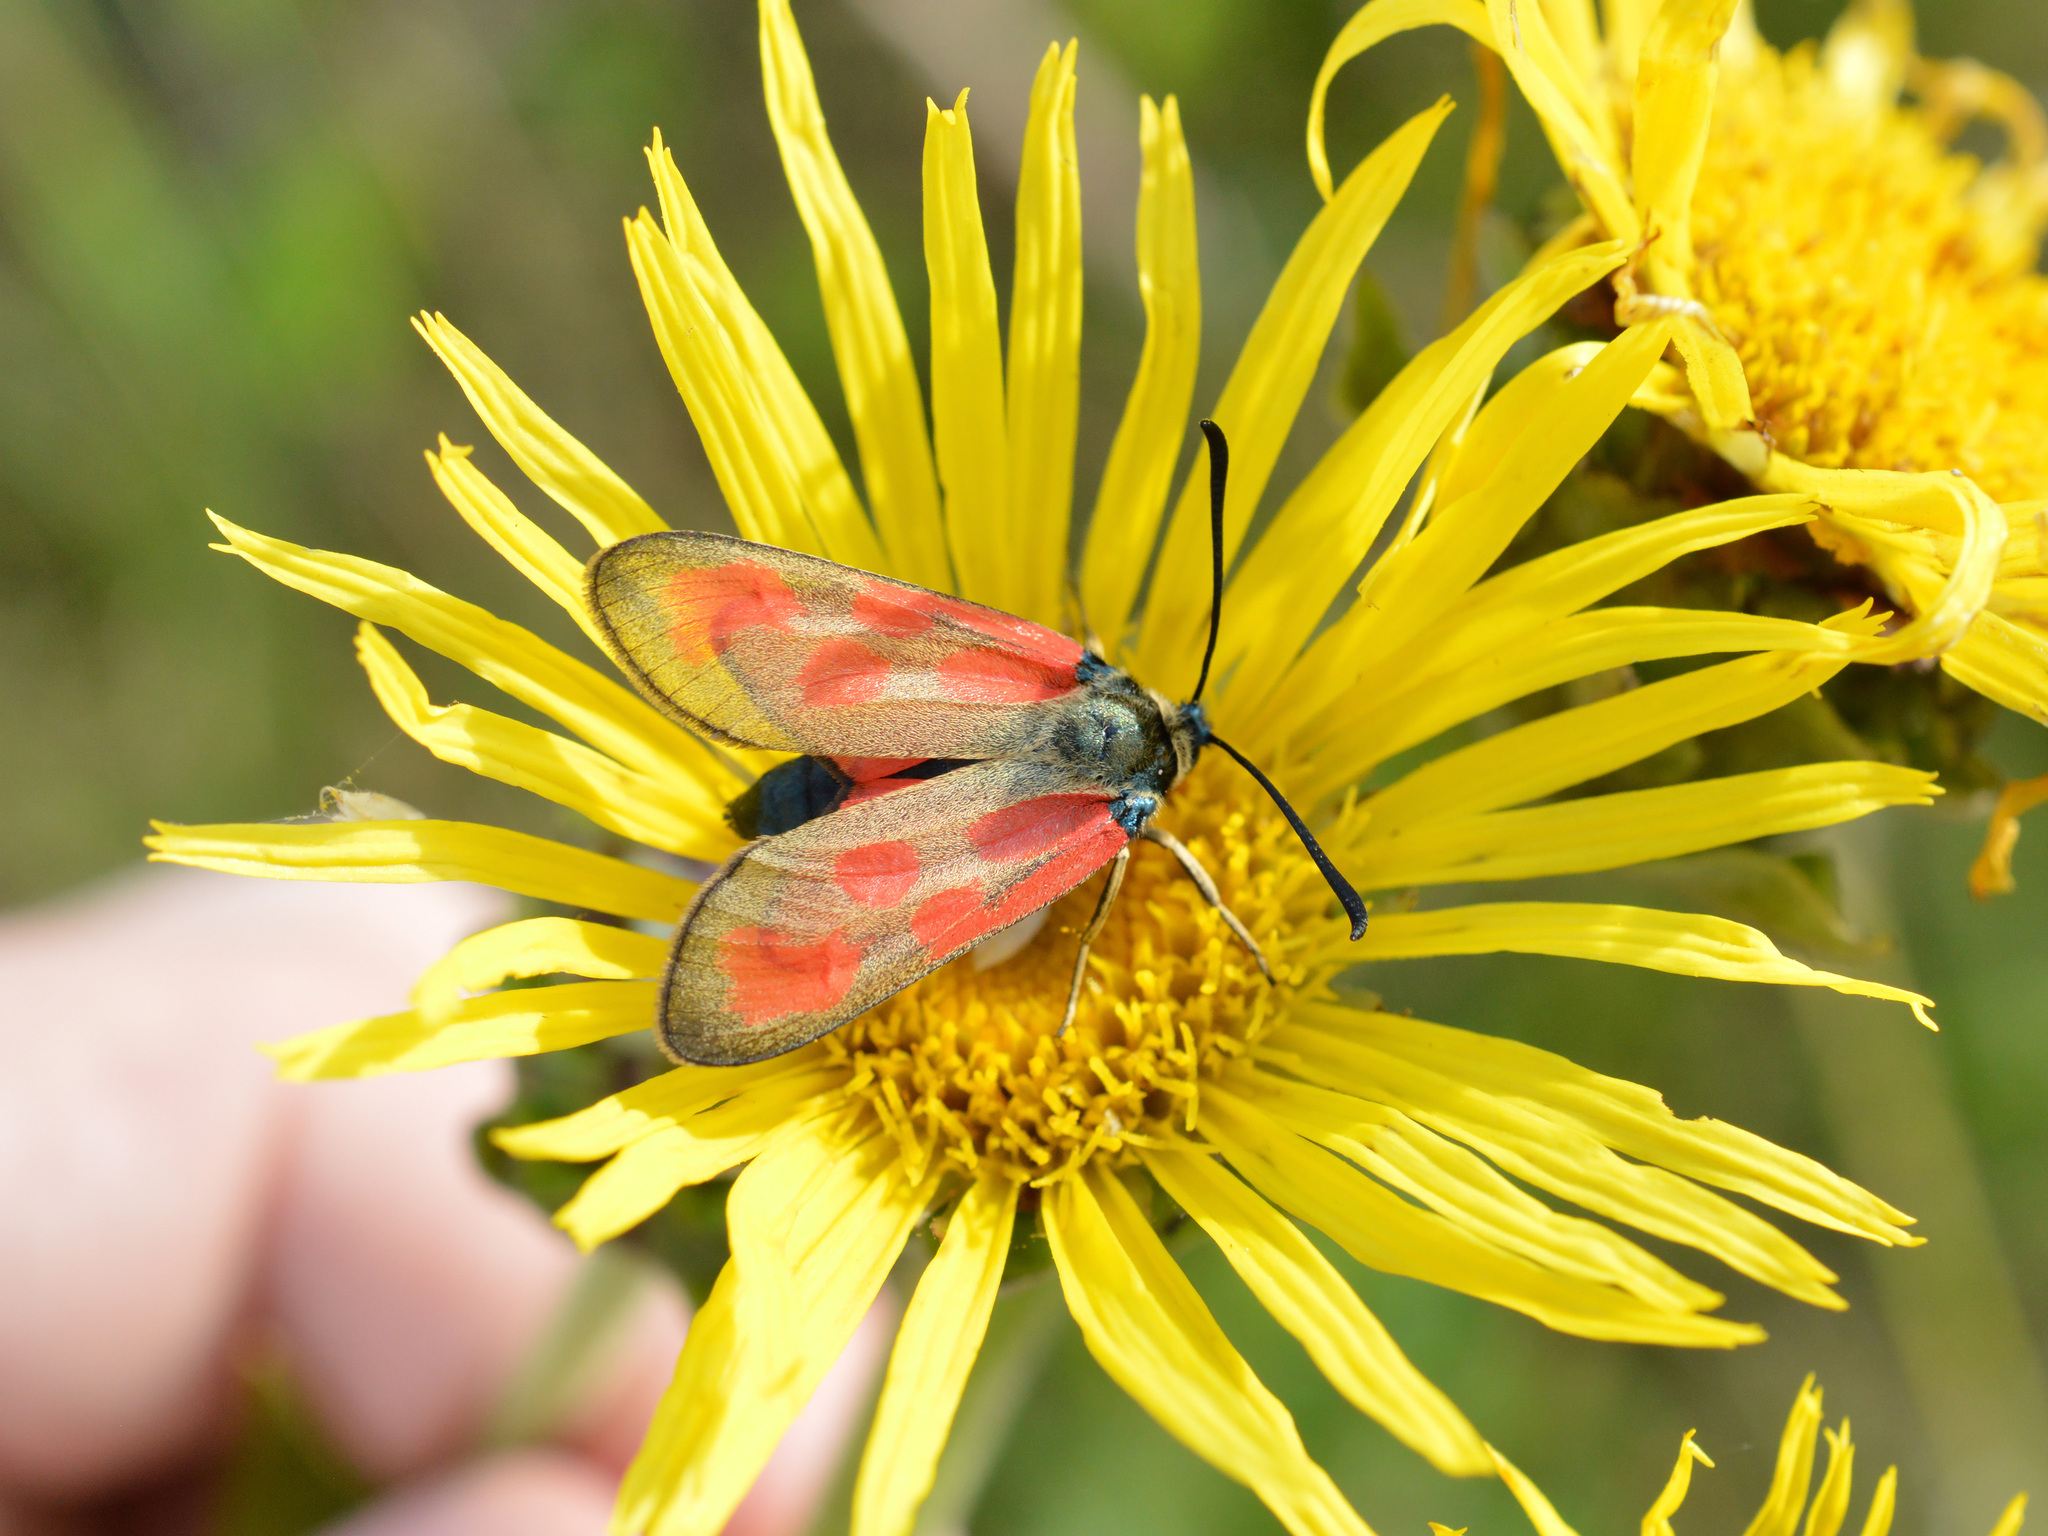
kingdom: Animalia
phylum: Arthropoda
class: Insecta
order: Lepidoptera
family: Zygaenidae
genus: Zygaena
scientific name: Zygaena loti
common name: Slender scotch burnet
